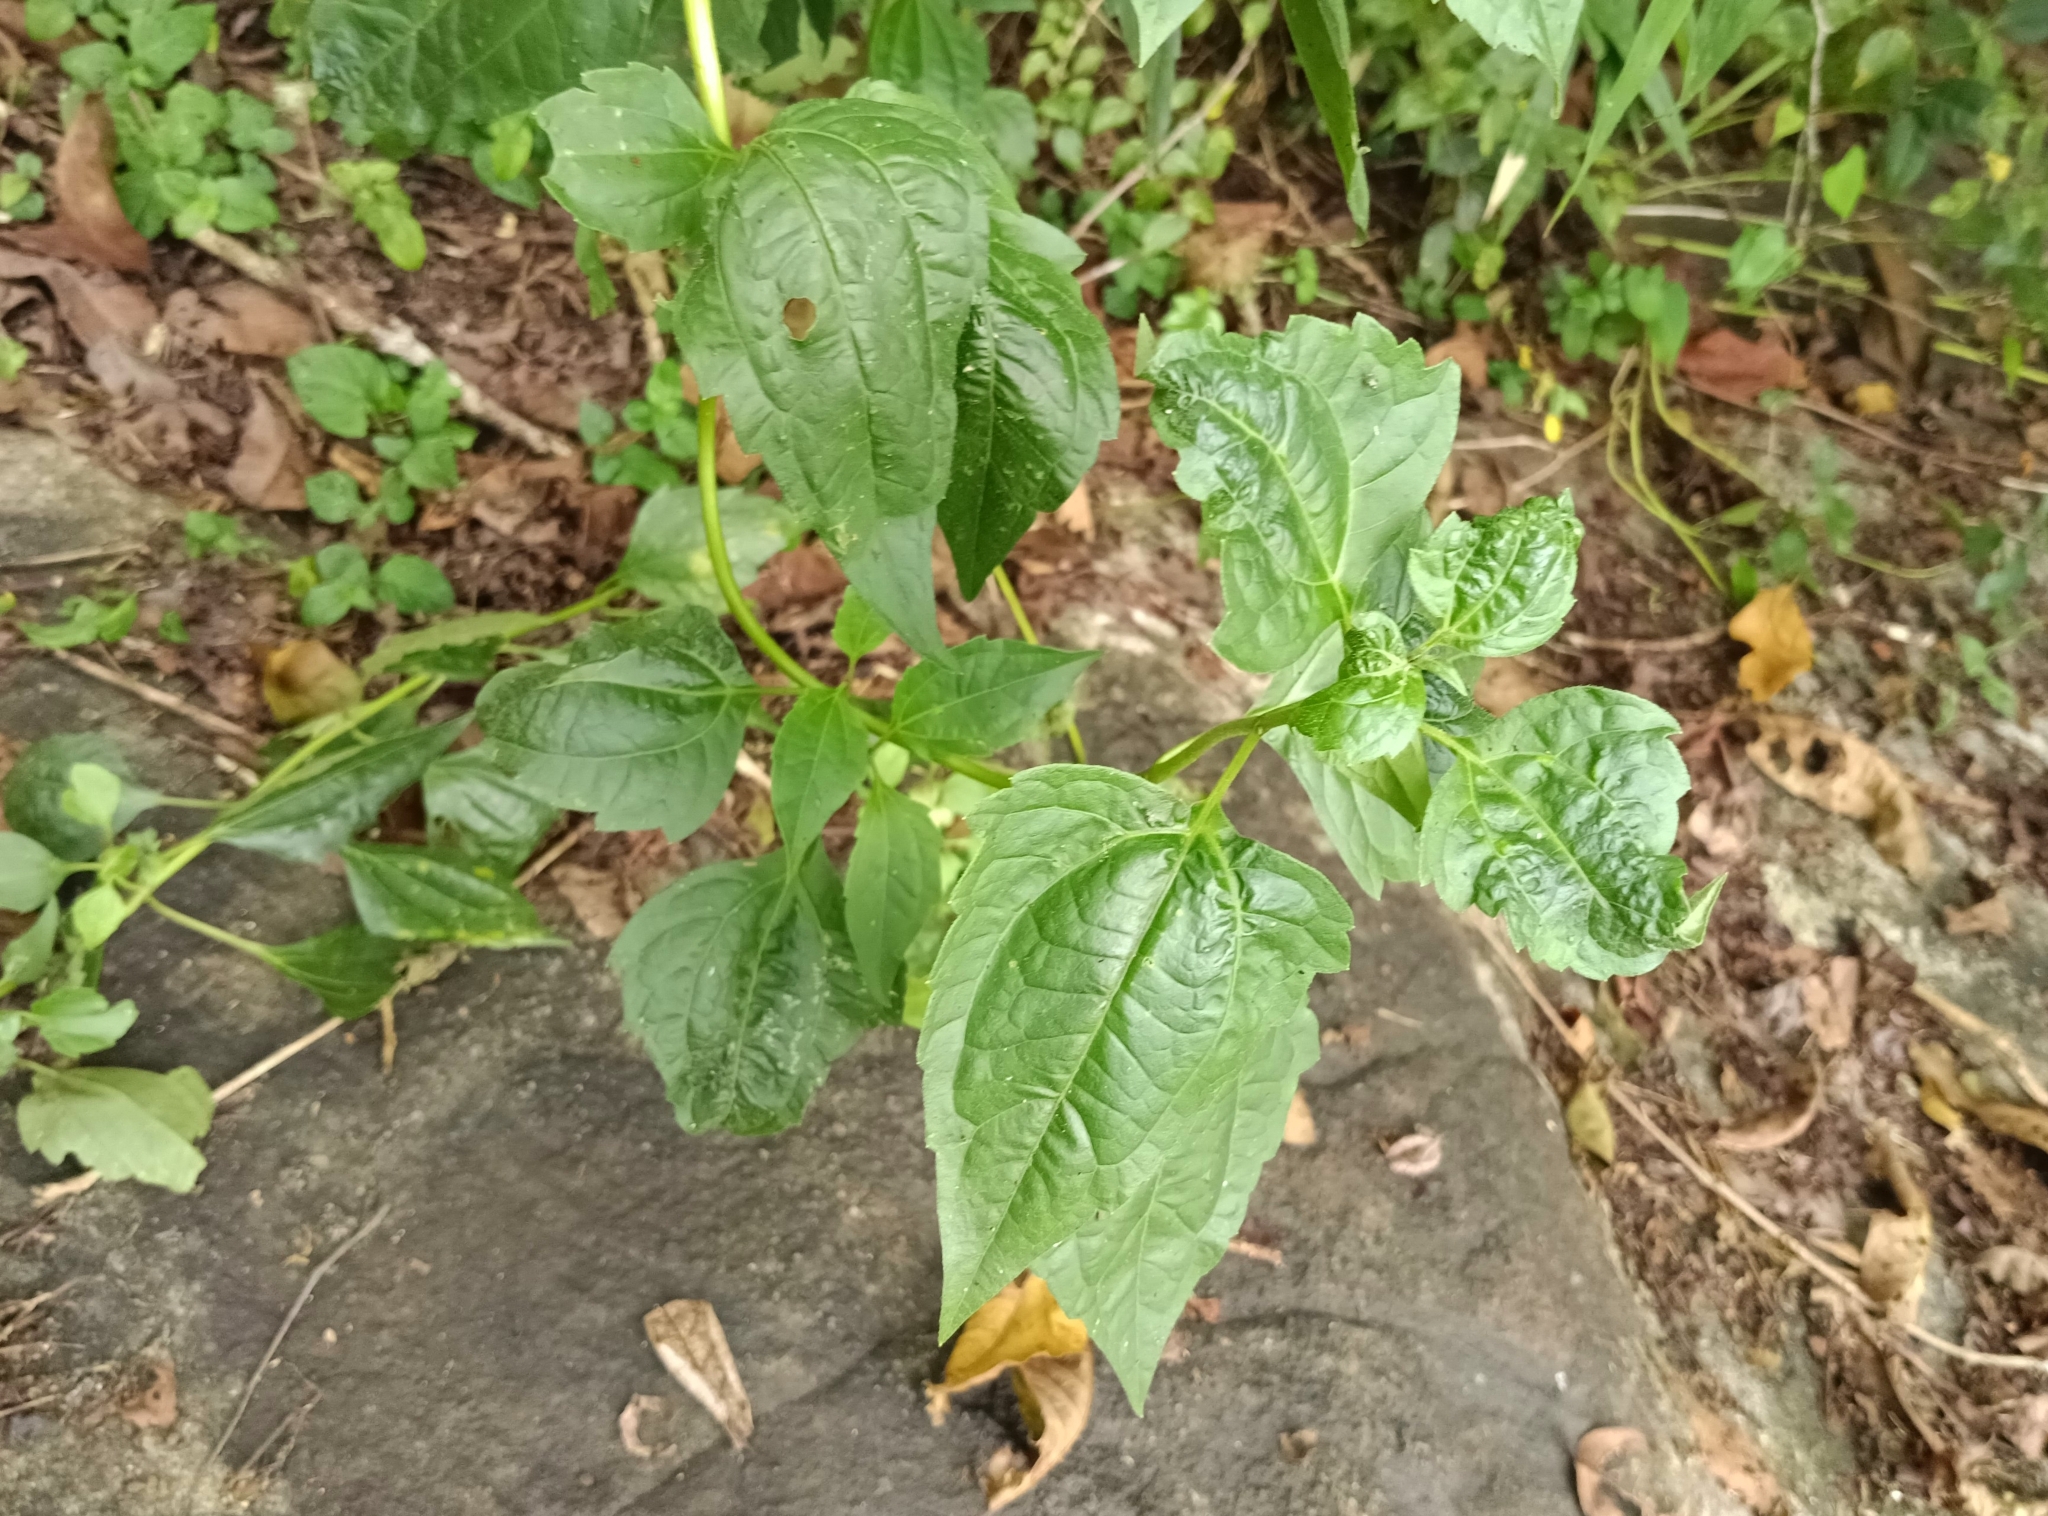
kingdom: Plantae
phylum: Tracheophyta
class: Magnoliopsida
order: Asterales
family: Asteraceae
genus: Chromolaena
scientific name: Chromolaena odorata
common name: Siamweed
